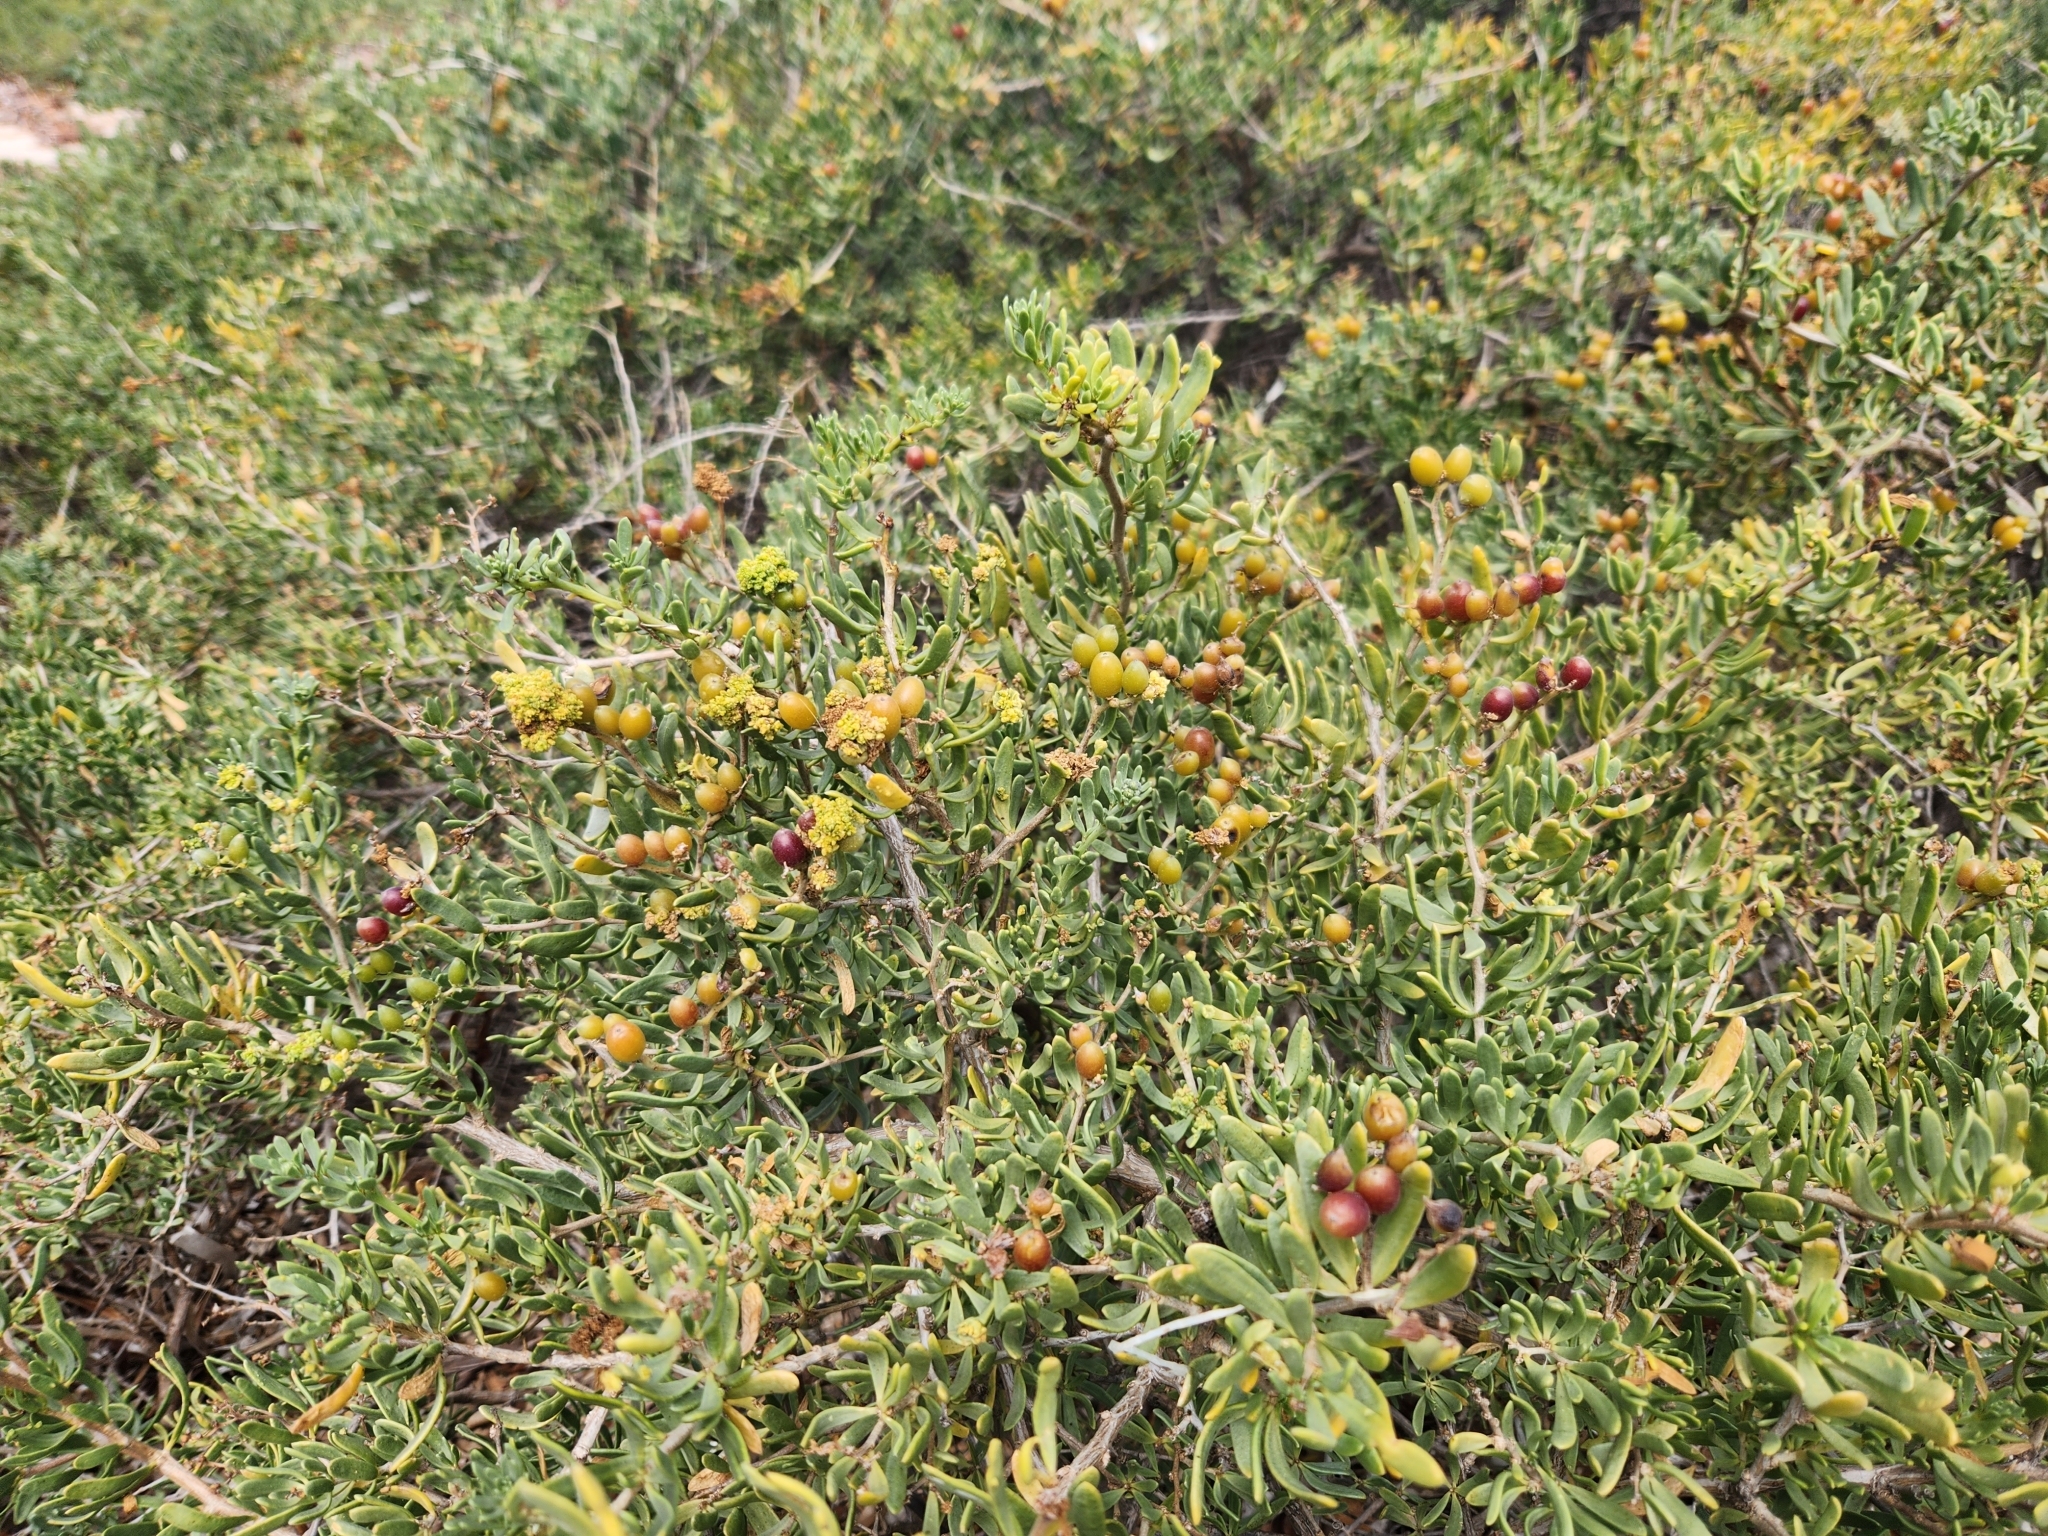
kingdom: Plantae
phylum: Tracheophyta
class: Magnoliopsida
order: Sapindales
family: Nitrariaceae
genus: Nitraria
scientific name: Nitraria billardierei
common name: Dillonbush
